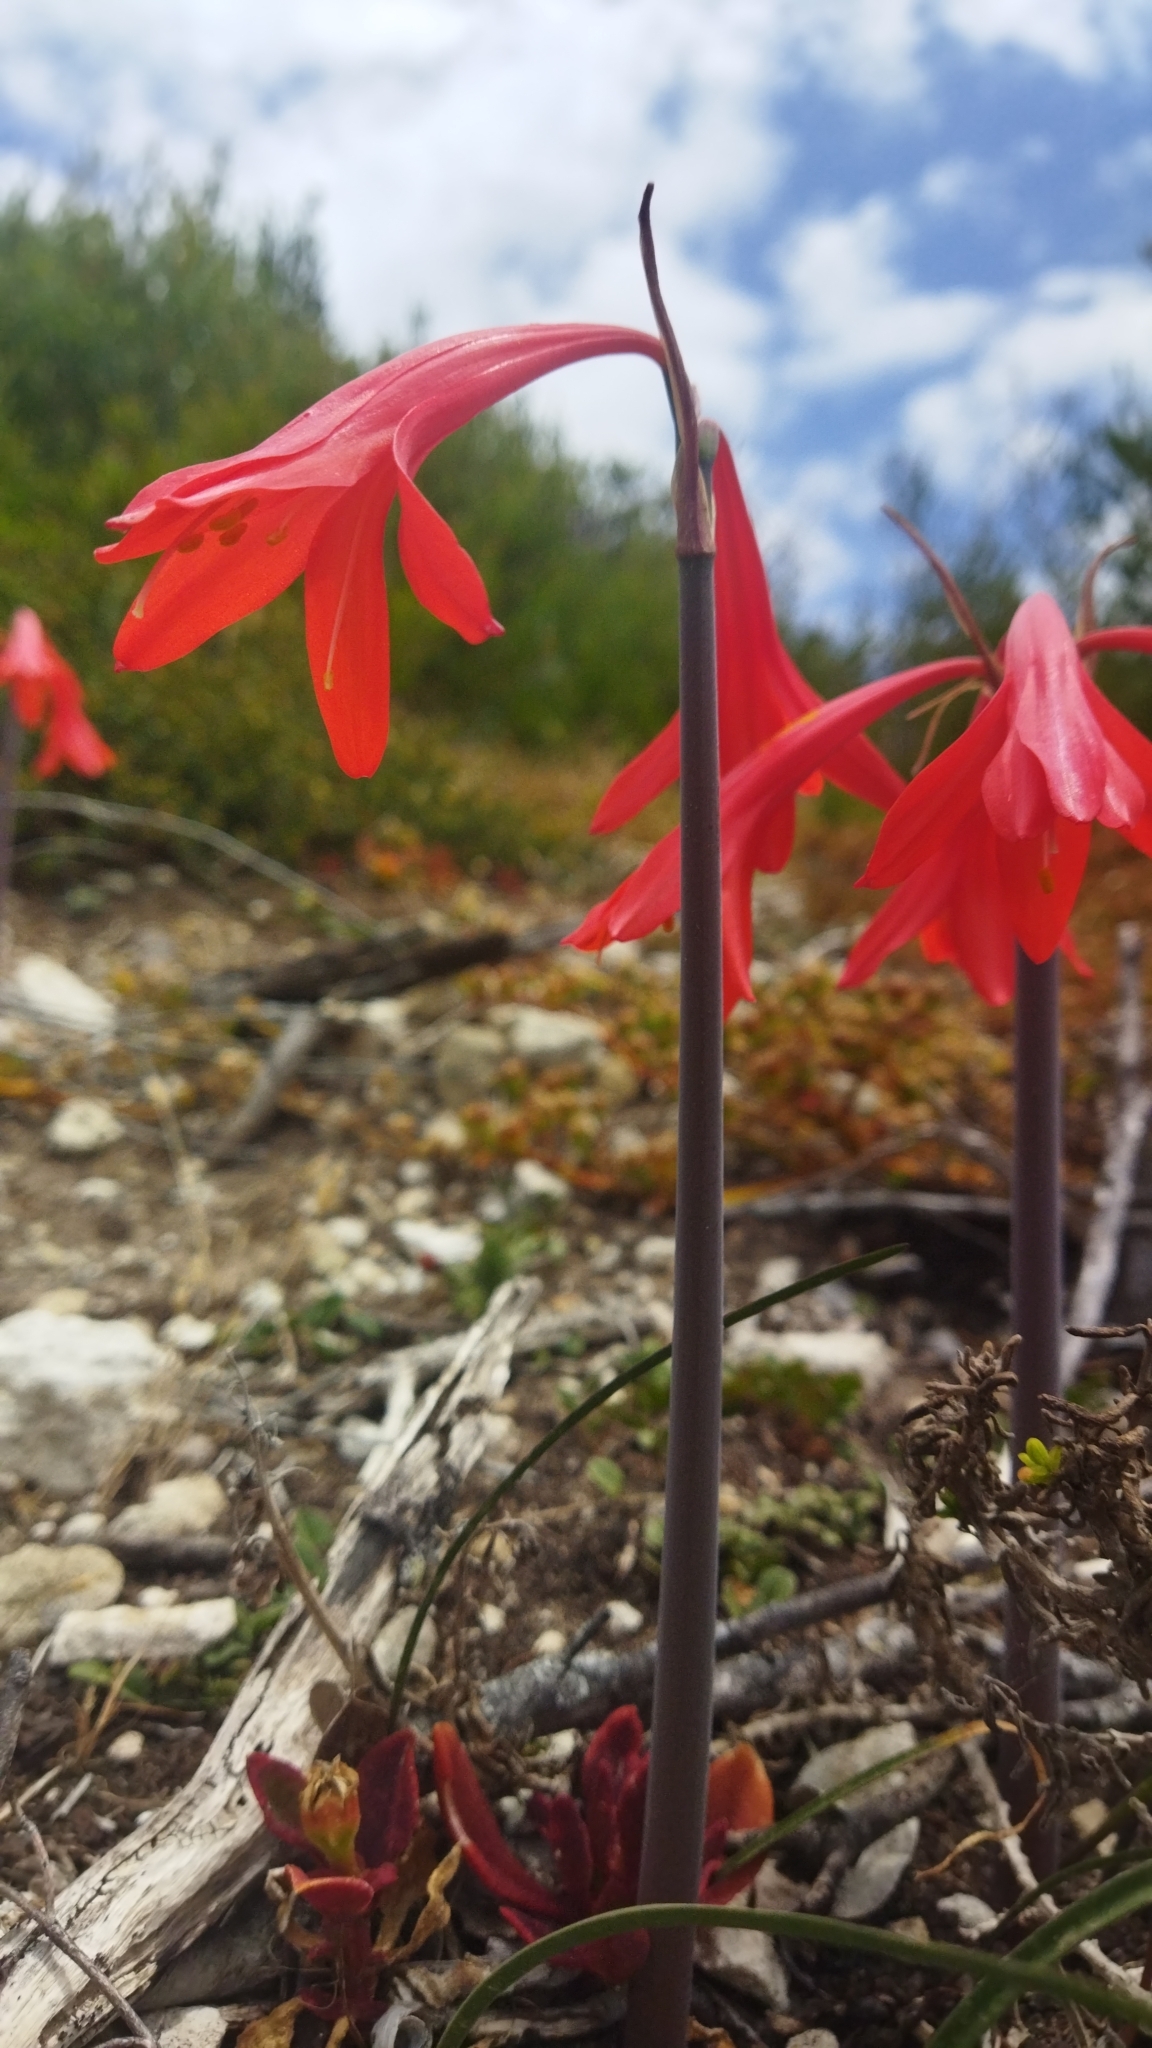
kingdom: Plantae
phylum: Tracheophyta
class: Liliopsida
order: Asparagales
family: Amaryllidaceae
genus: Cyrtanthus
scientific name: Cyrtanthus fergusoniae
